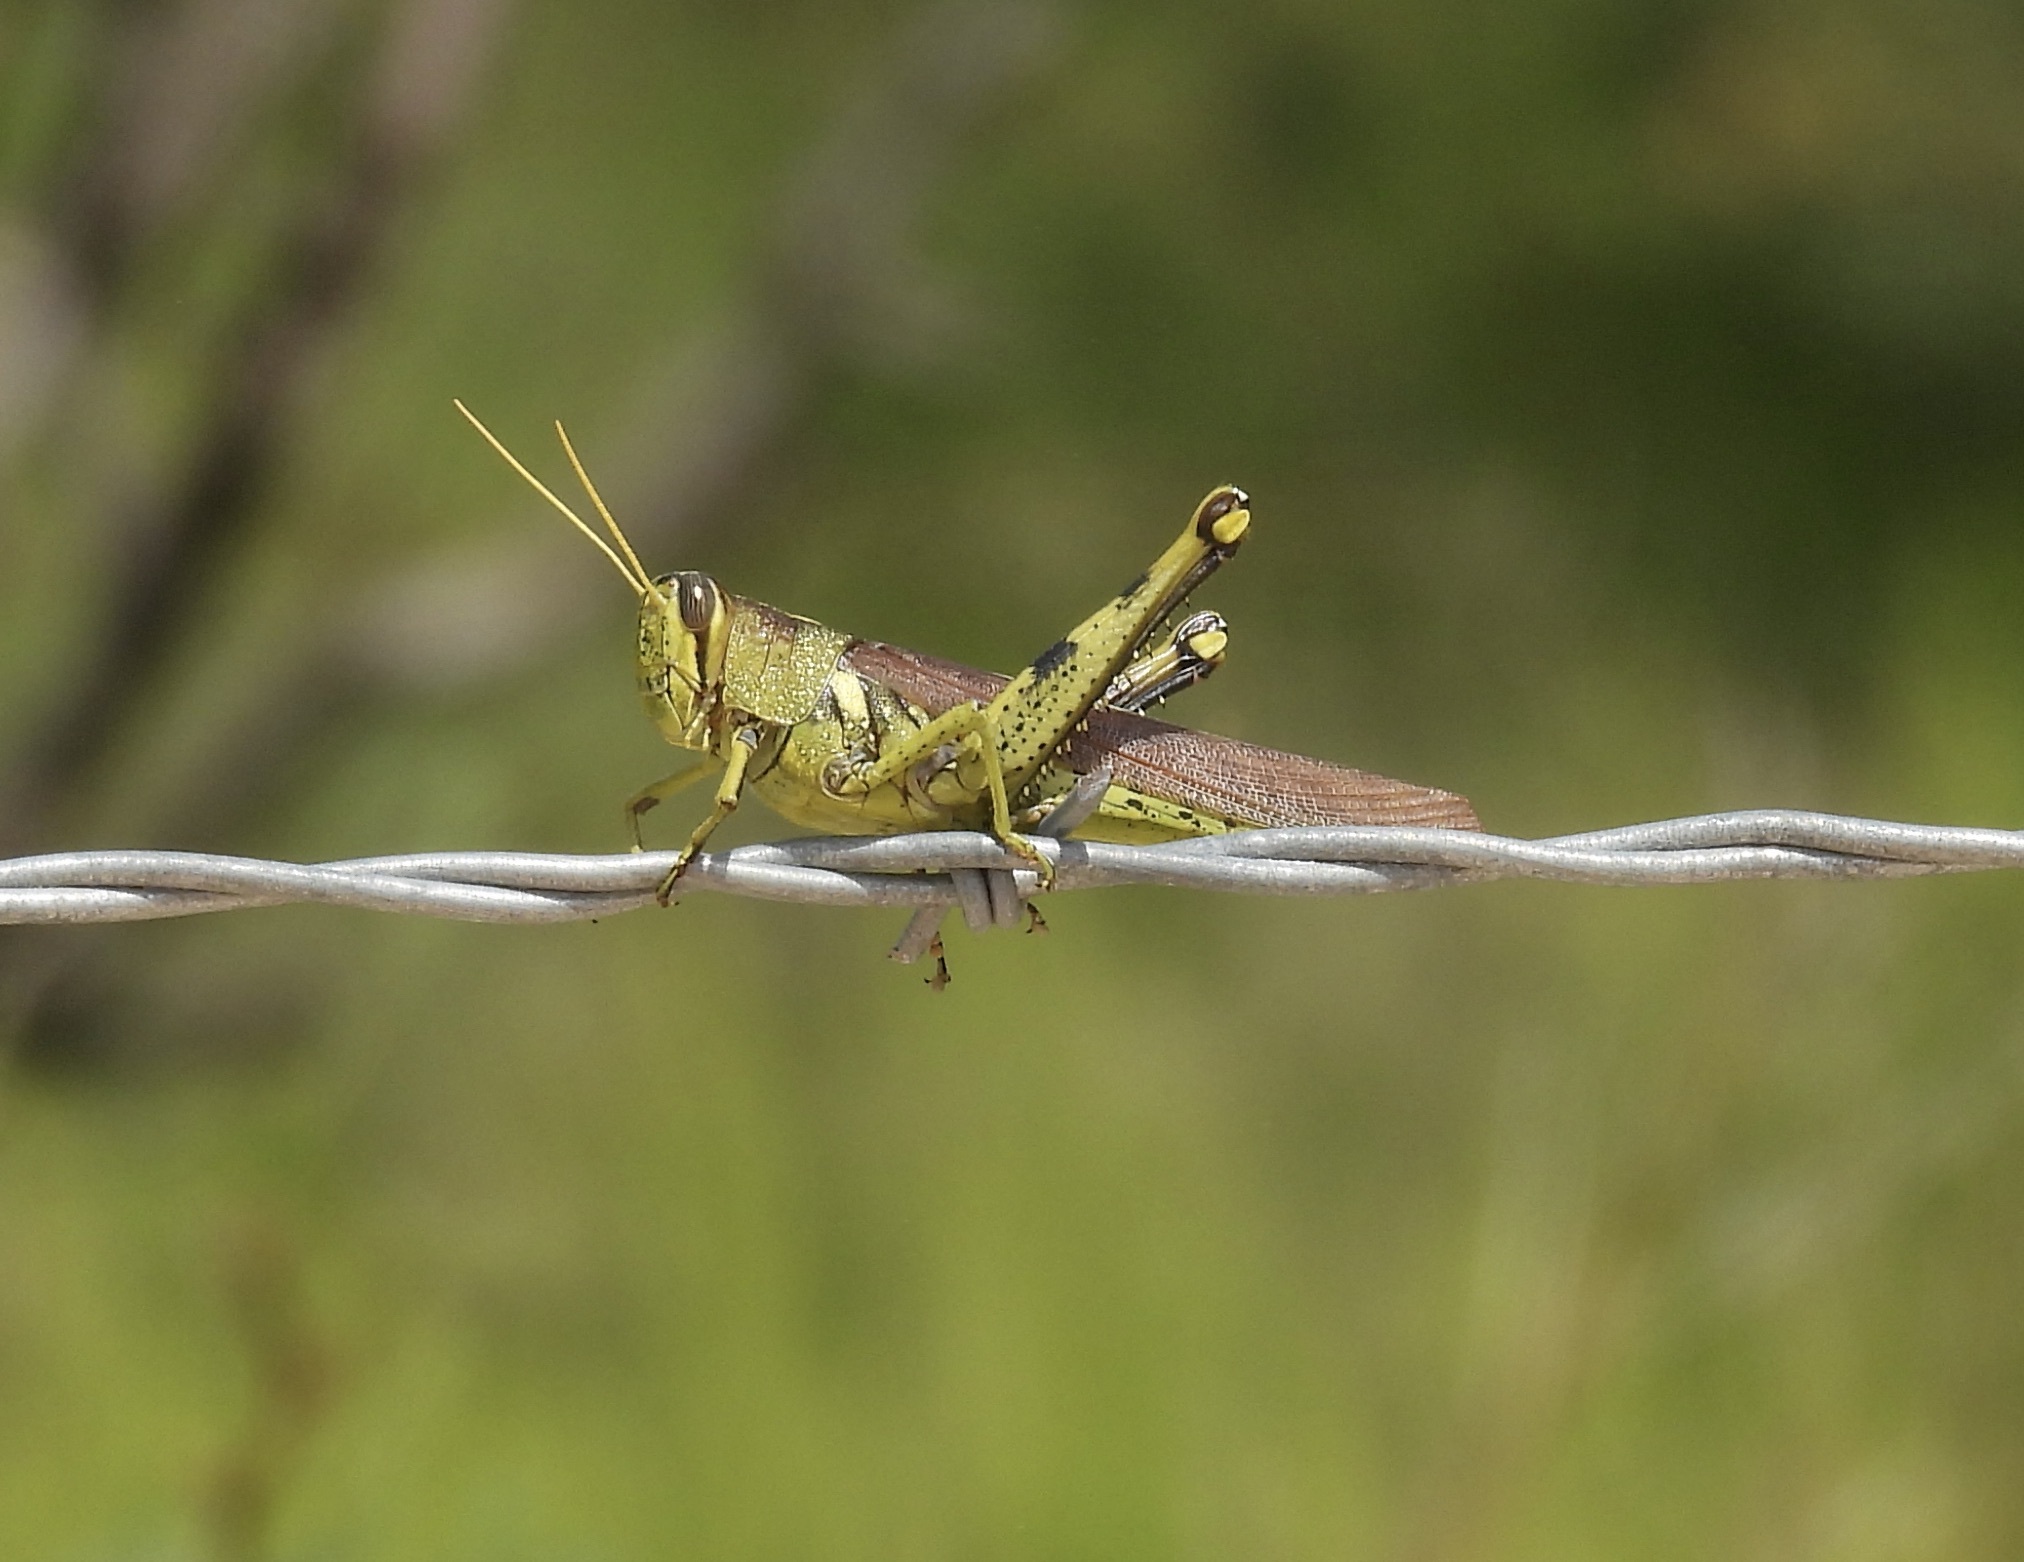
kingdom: Animalia
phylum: Arthropoda
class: Insecta
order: Orthoptera
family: Acrididae
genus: Schistocerca
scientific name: Schistocerca obscura
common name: Obscure bird grasshopper
